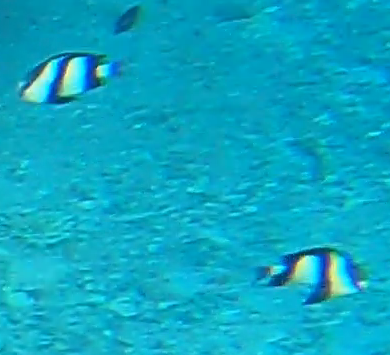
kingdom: Animalia
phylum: Chordata
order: Perciformes
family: Pomacentridae
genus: Dascyllus
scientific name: Dascyllus abudafur
